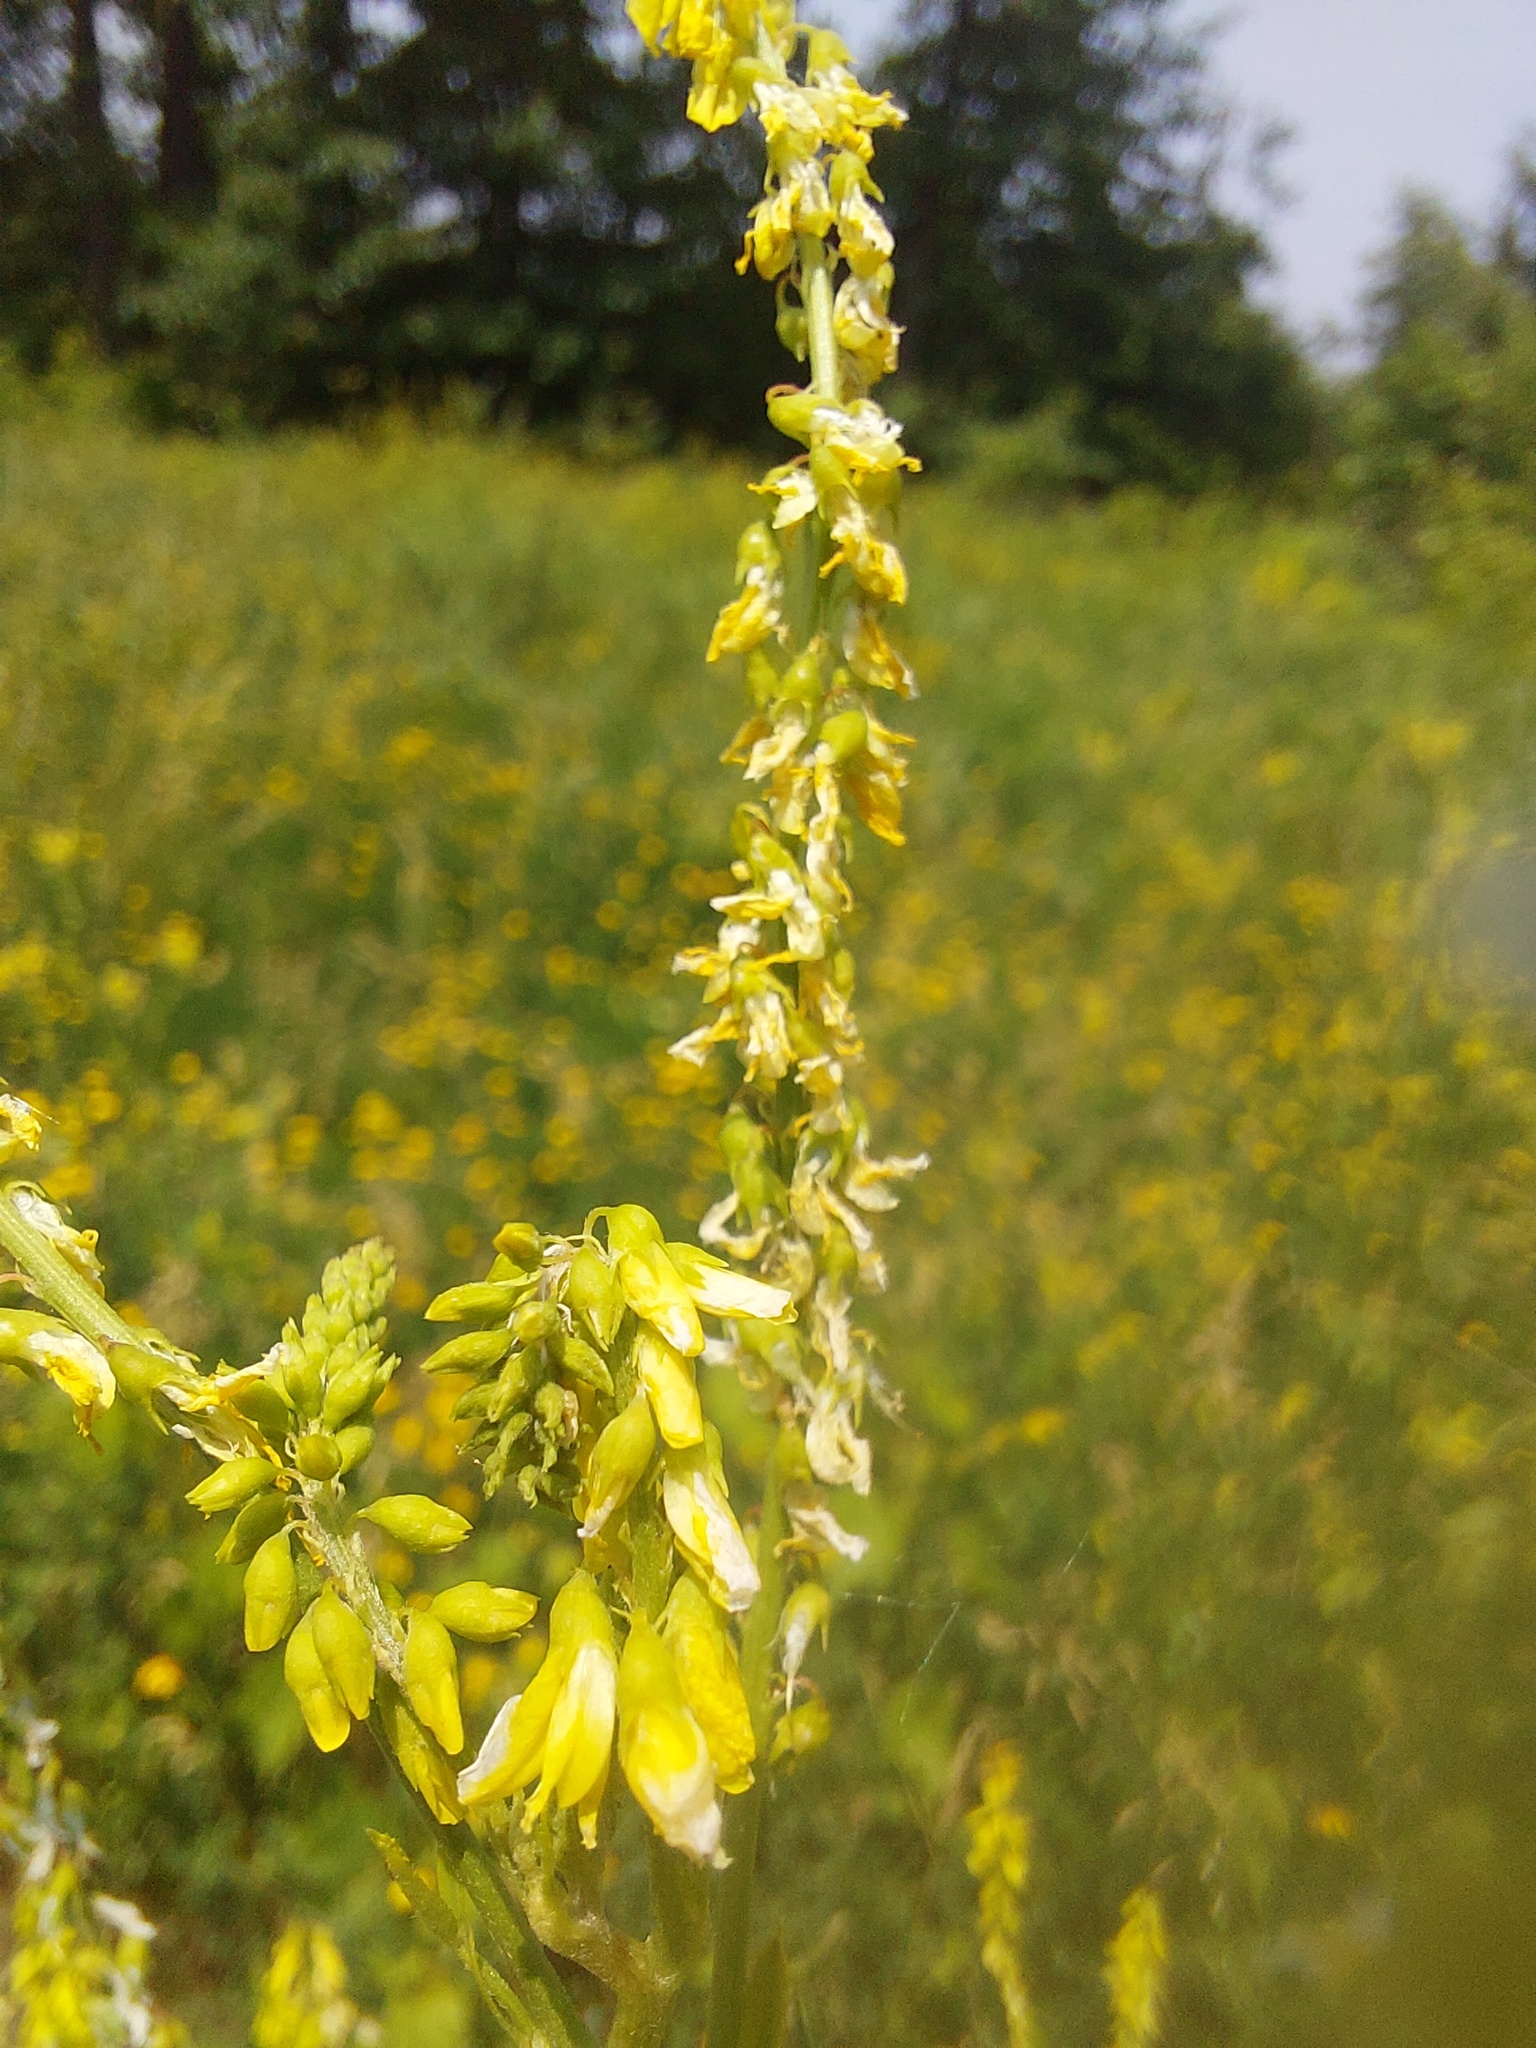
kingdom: Plantae
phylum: Tracheophyta
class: Magnoliopsida
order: Fabales
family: Fabaceae
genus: Melilotus
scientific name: Melilotus officinalis
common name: Sweetclover
